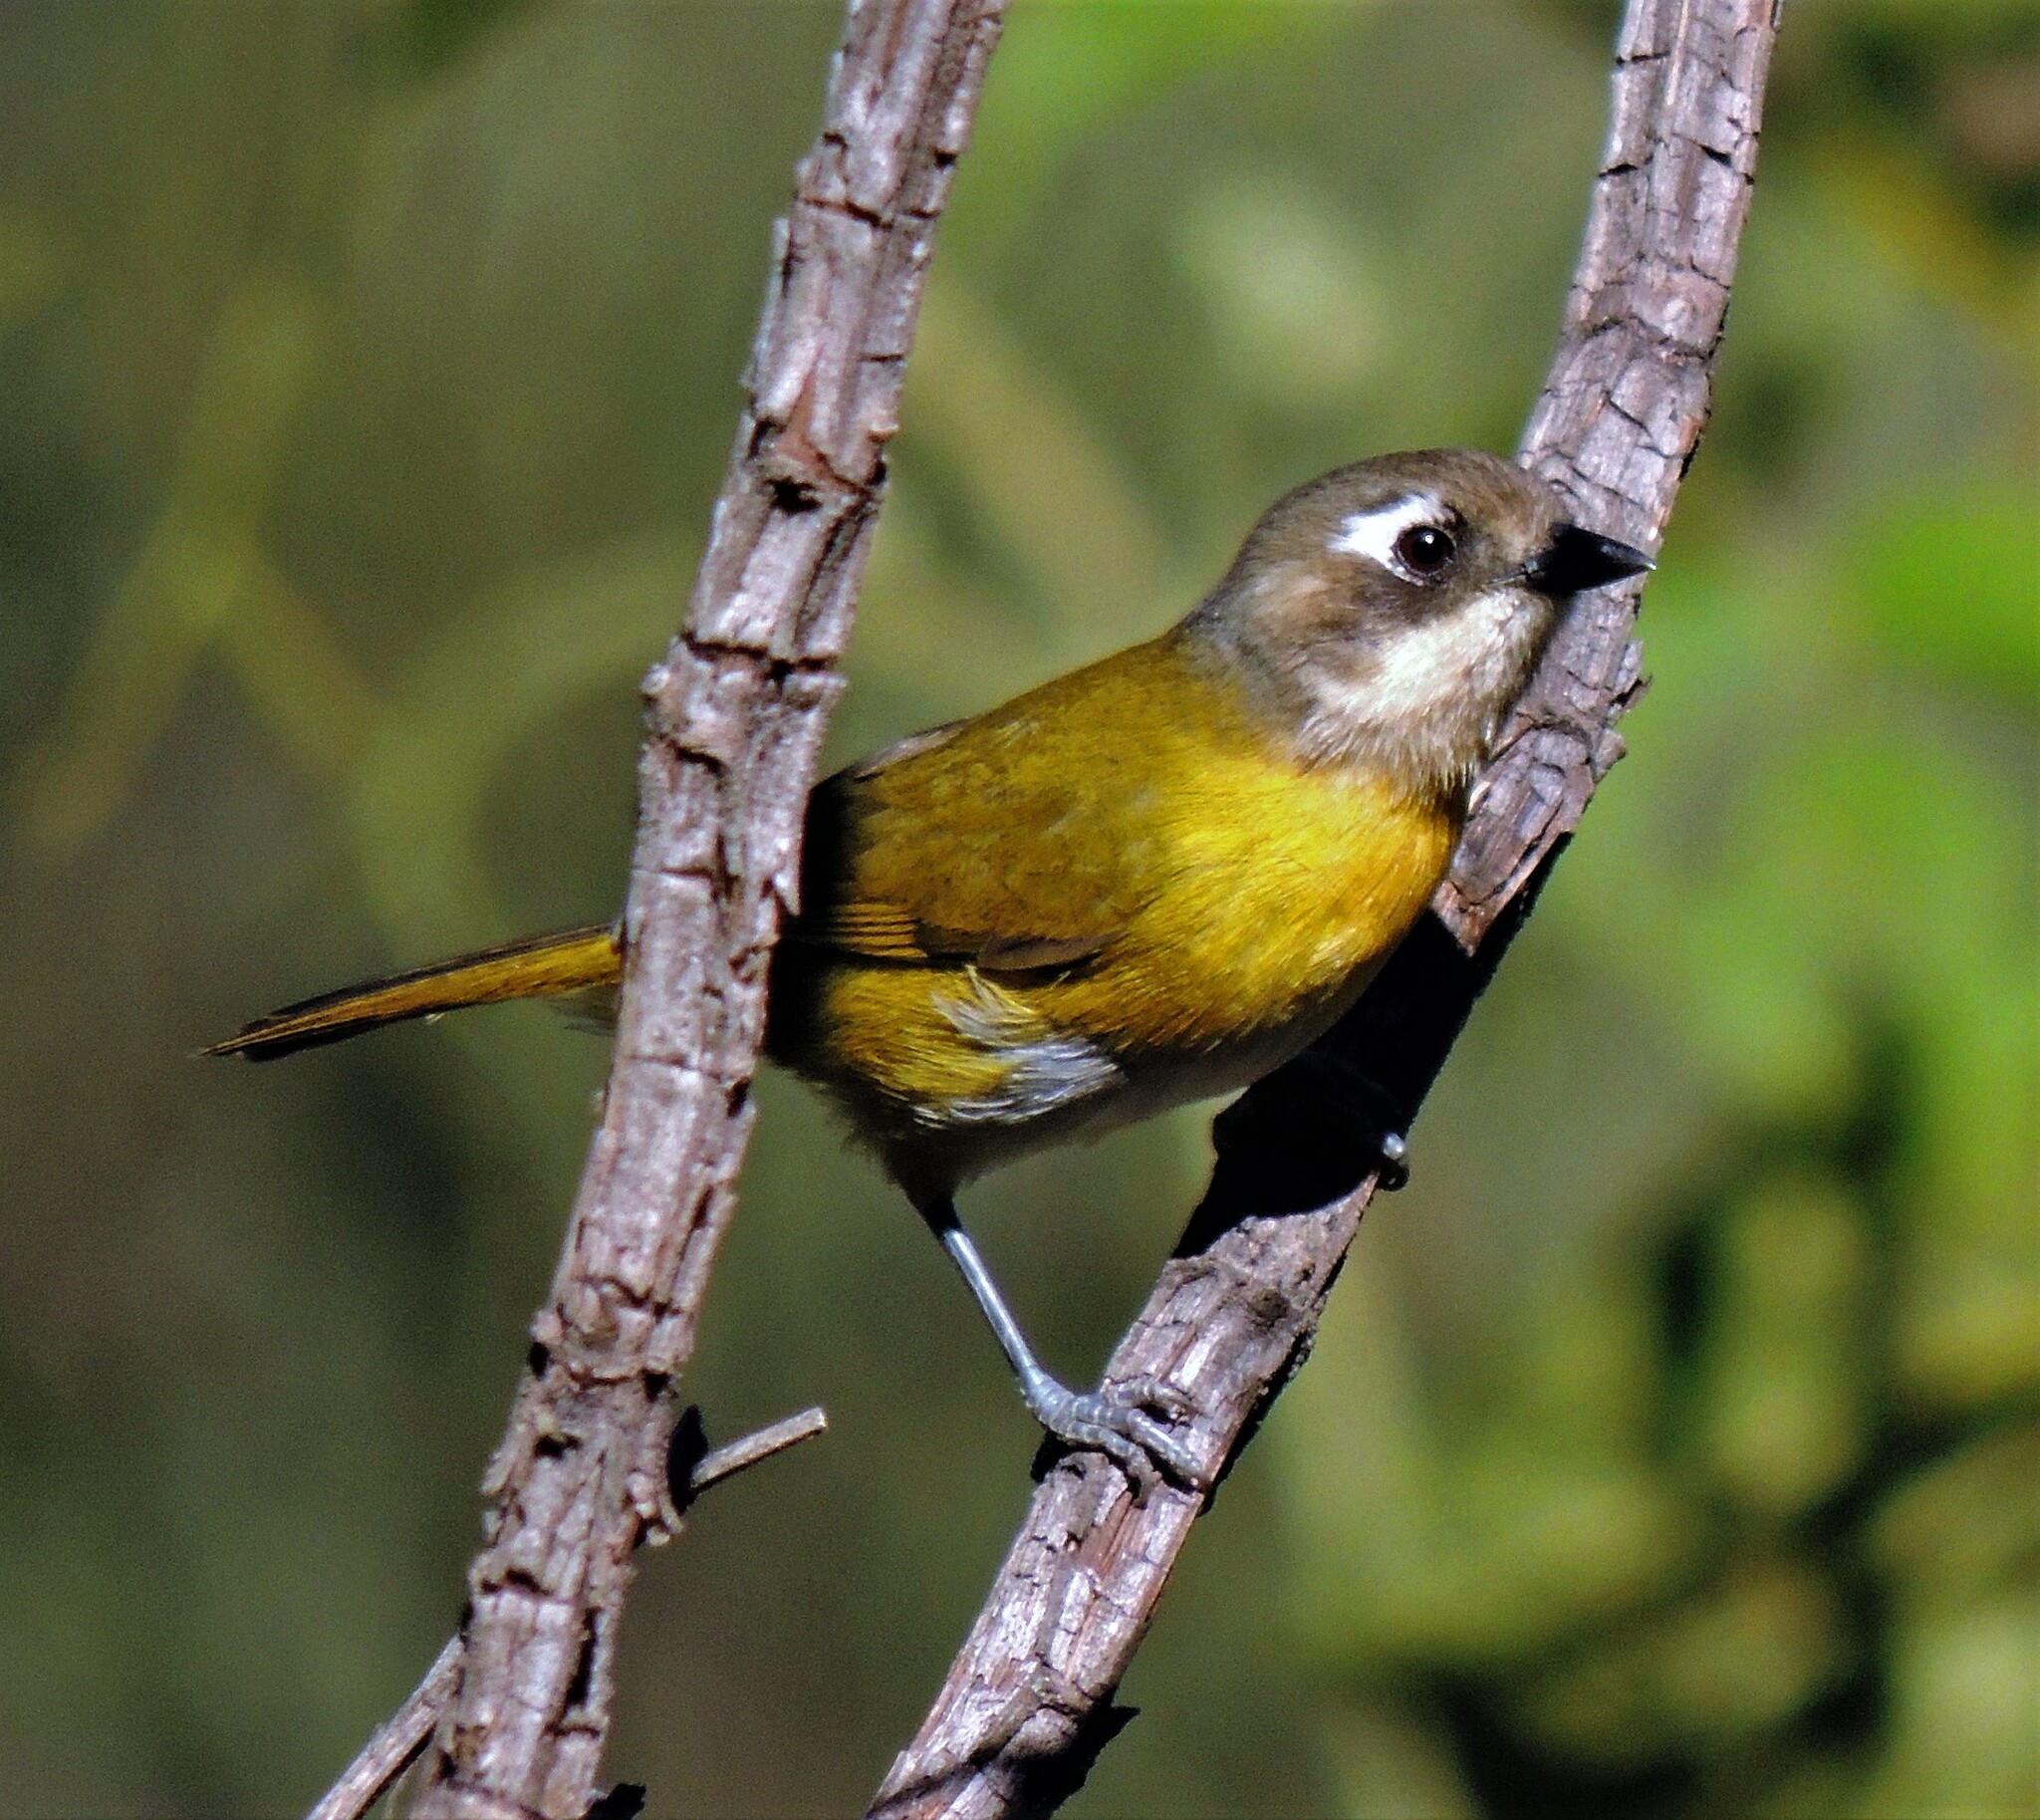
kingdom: Animalia
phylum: Chordata
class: Aves
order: Passeriformes
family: Passerellidae
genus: Chlorospingus
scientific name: Chlorospingus flavopectus
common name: Common chlorospingus
